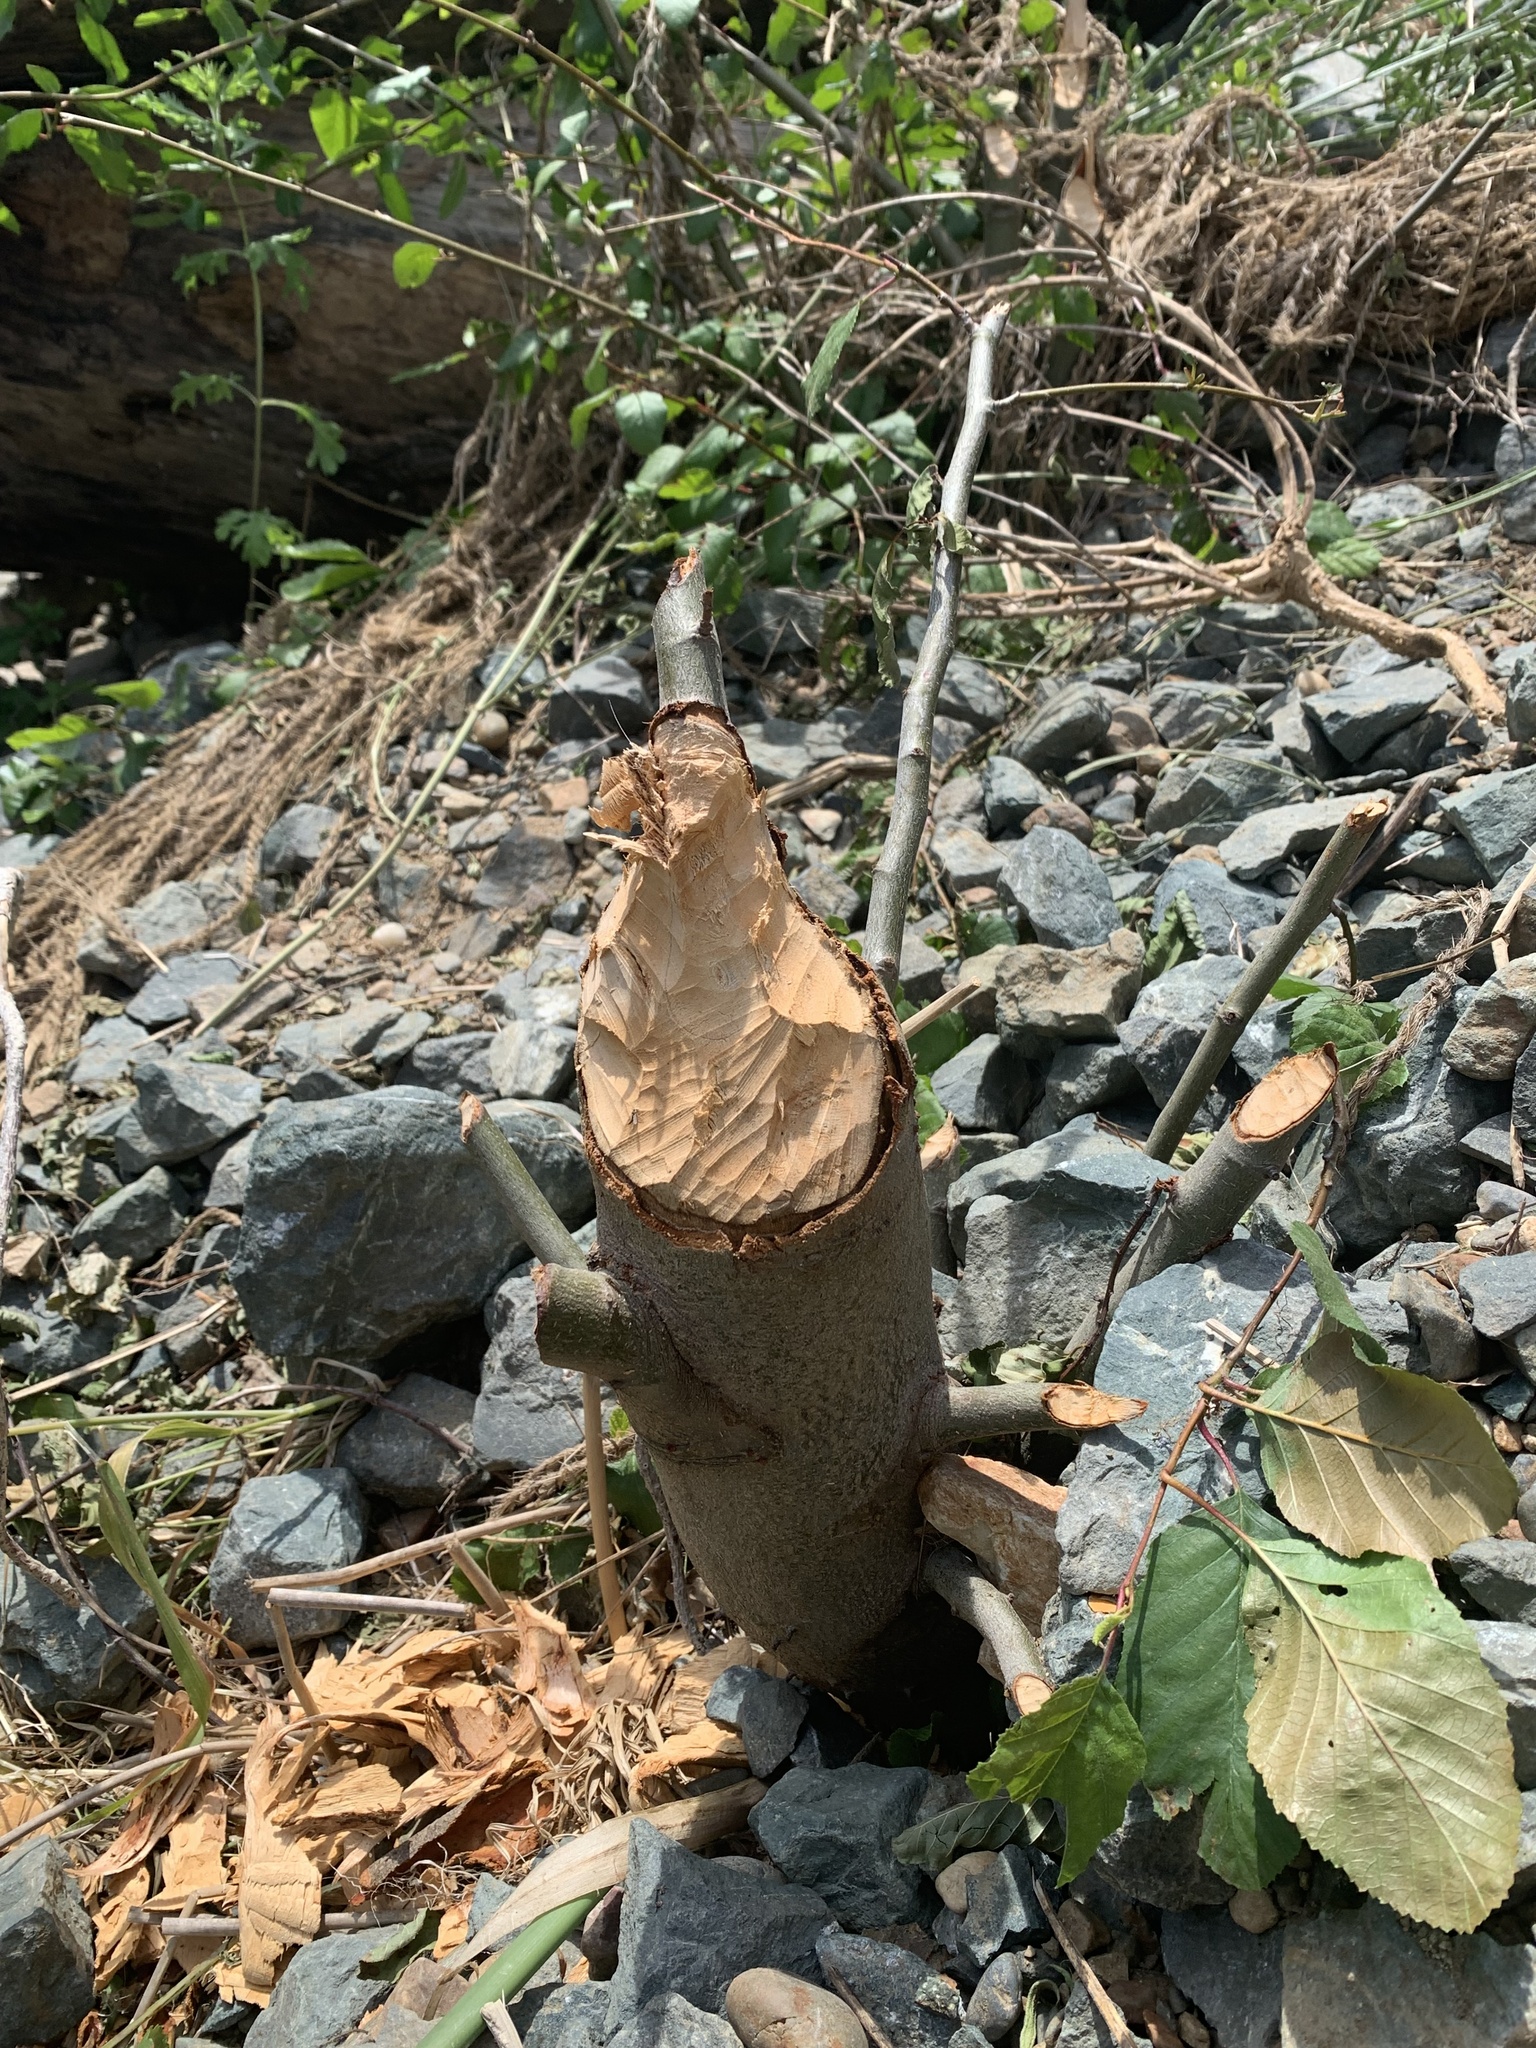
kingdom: Animalia
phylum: Chordata
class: Mammalia
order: Rodentia
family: Castoridae
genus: Castor
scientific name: Castor canadensis
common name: American beaver
